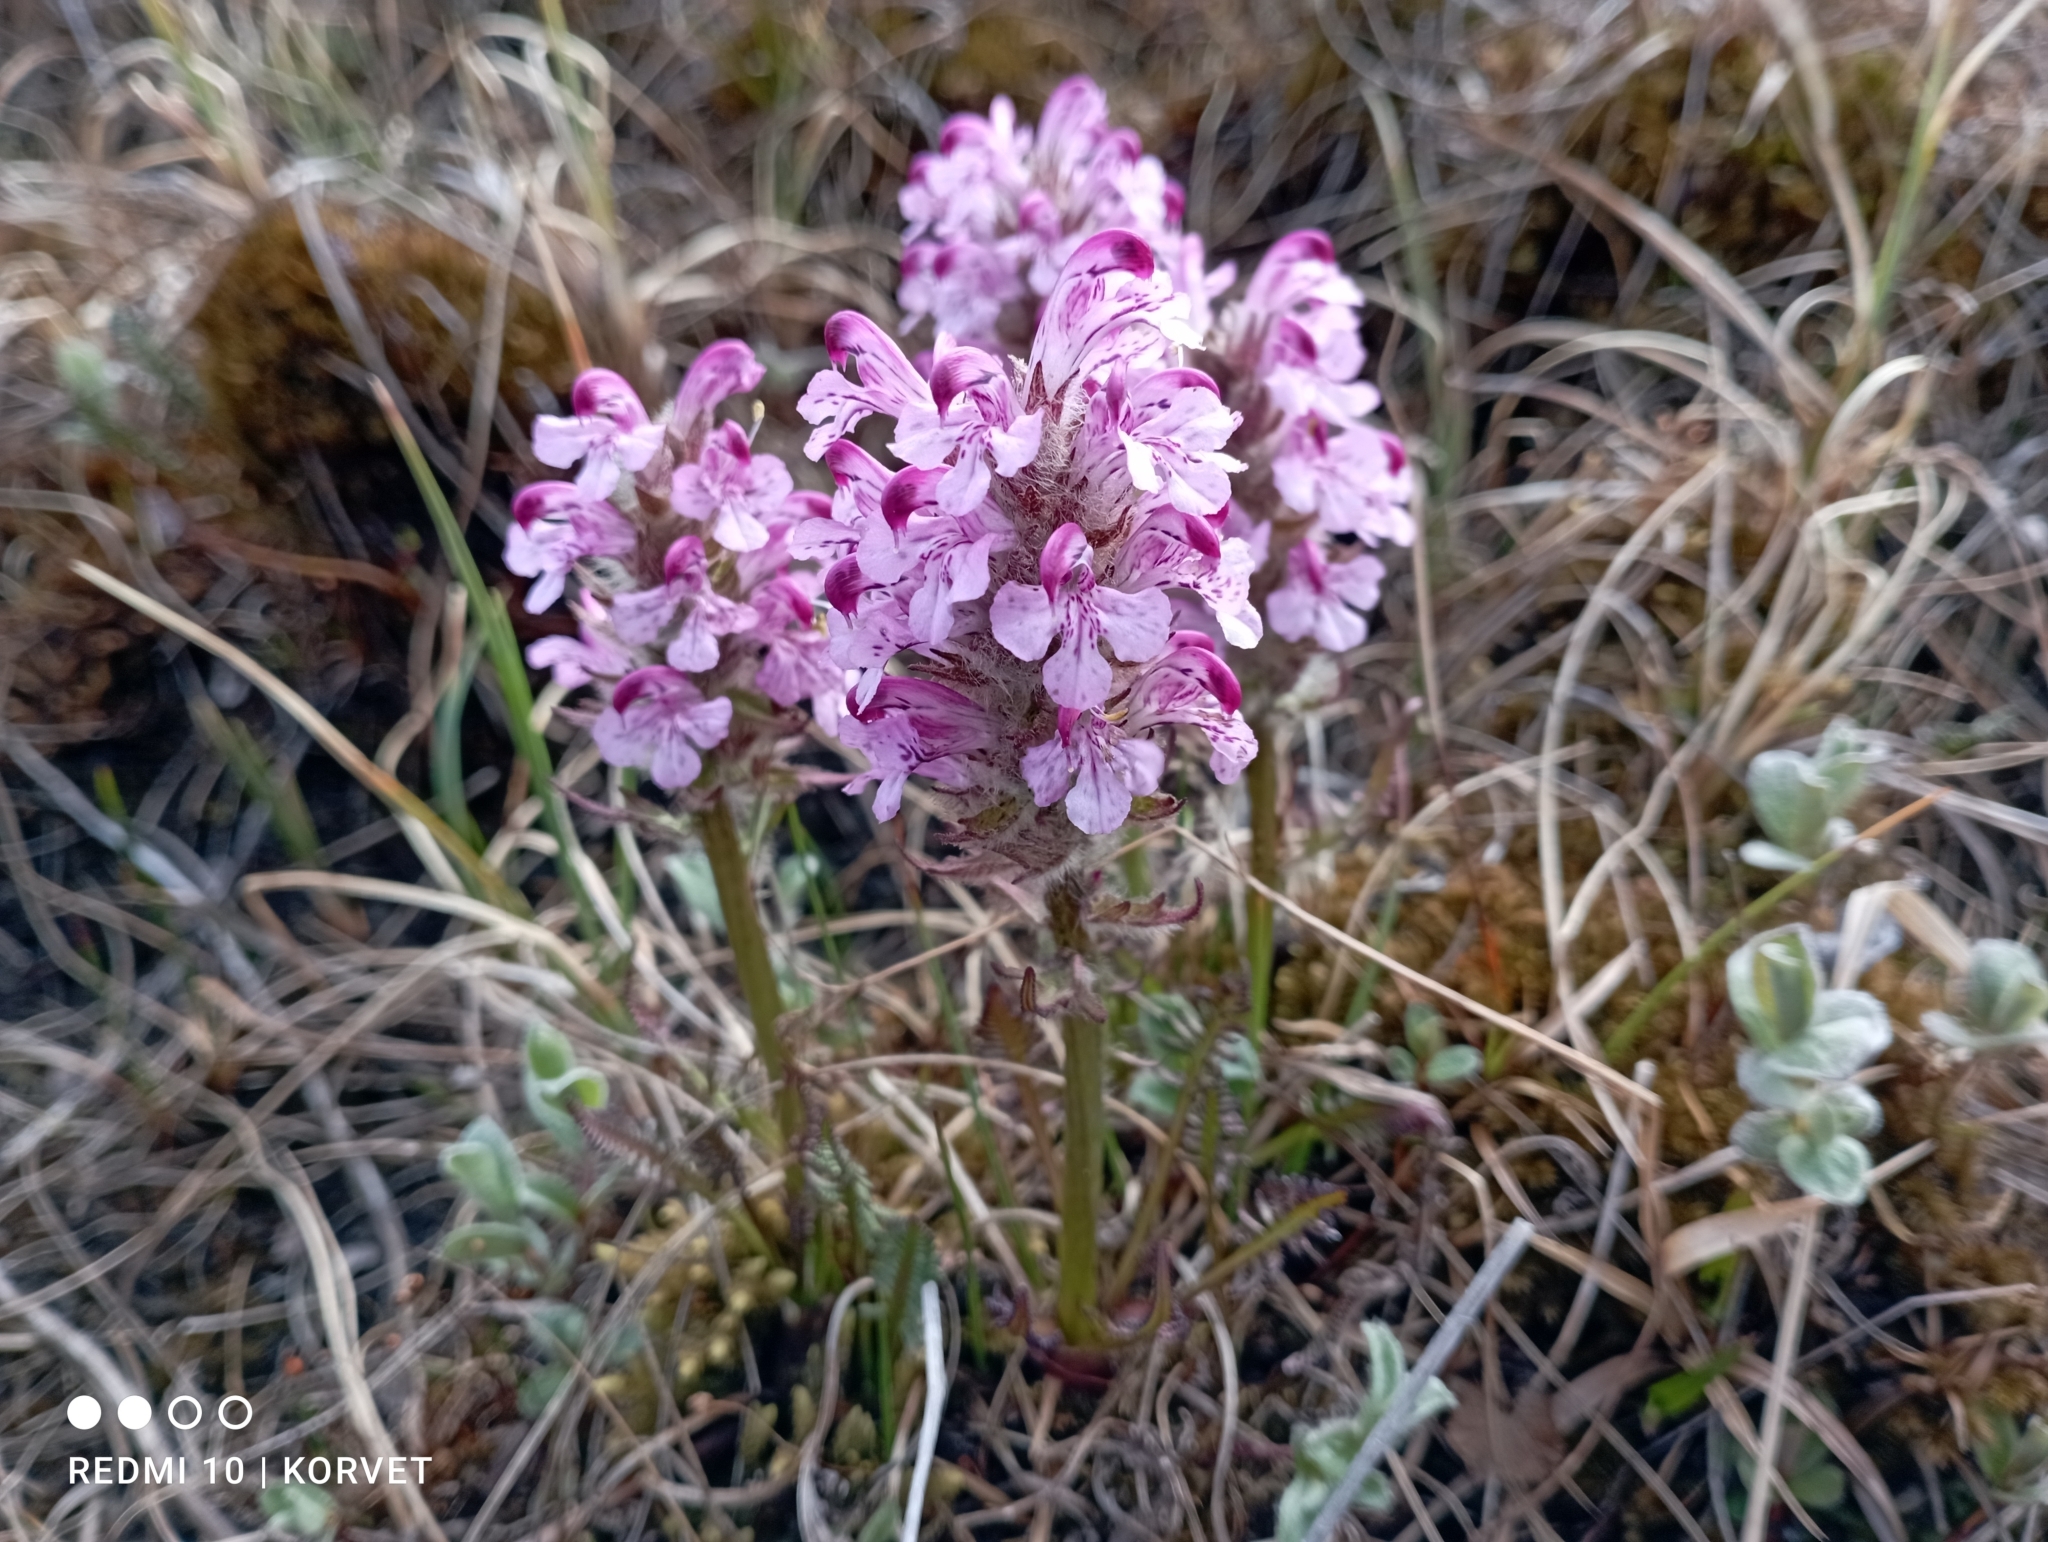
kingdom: Plantae
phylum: Tracheophyta
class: Magnoliopsida
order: Lamiales
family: Orobanchaceae
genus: Pedicularis
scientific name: Pedicularis novaiae-zemliae
